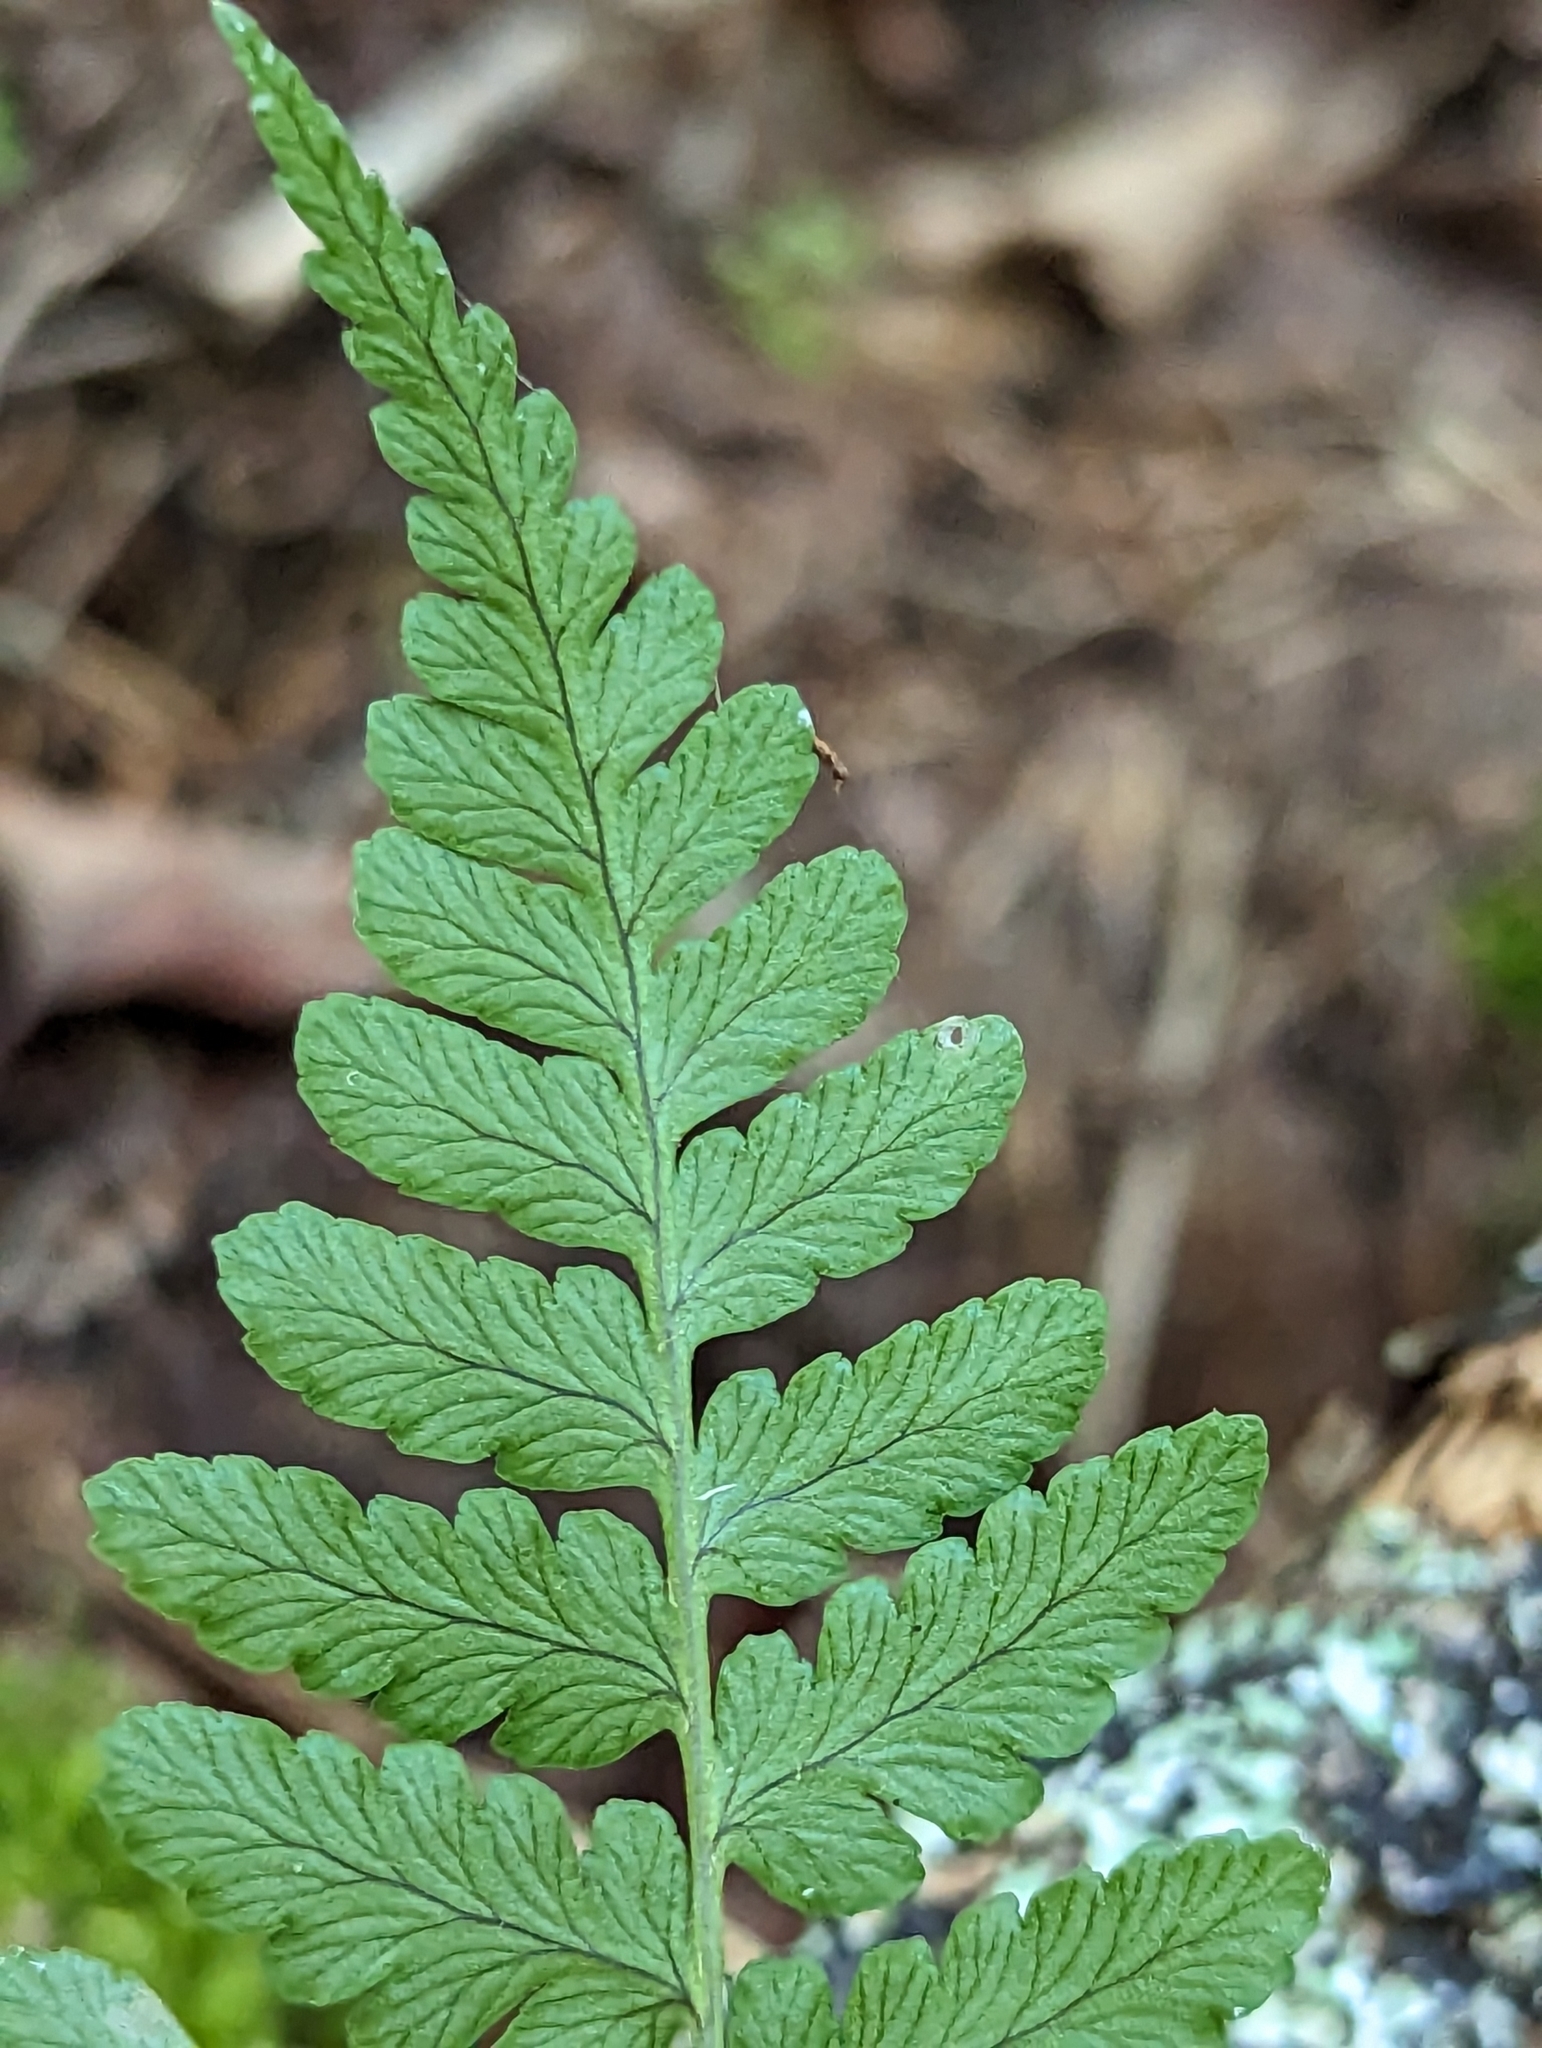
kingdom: Plantae
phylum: Tracheophyta
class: Polypodiopsida
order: Polypodiales
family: Dryopteridaceae
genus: Dryopteris
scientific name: Dryopteris marginalis
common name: Marginal wood fern
